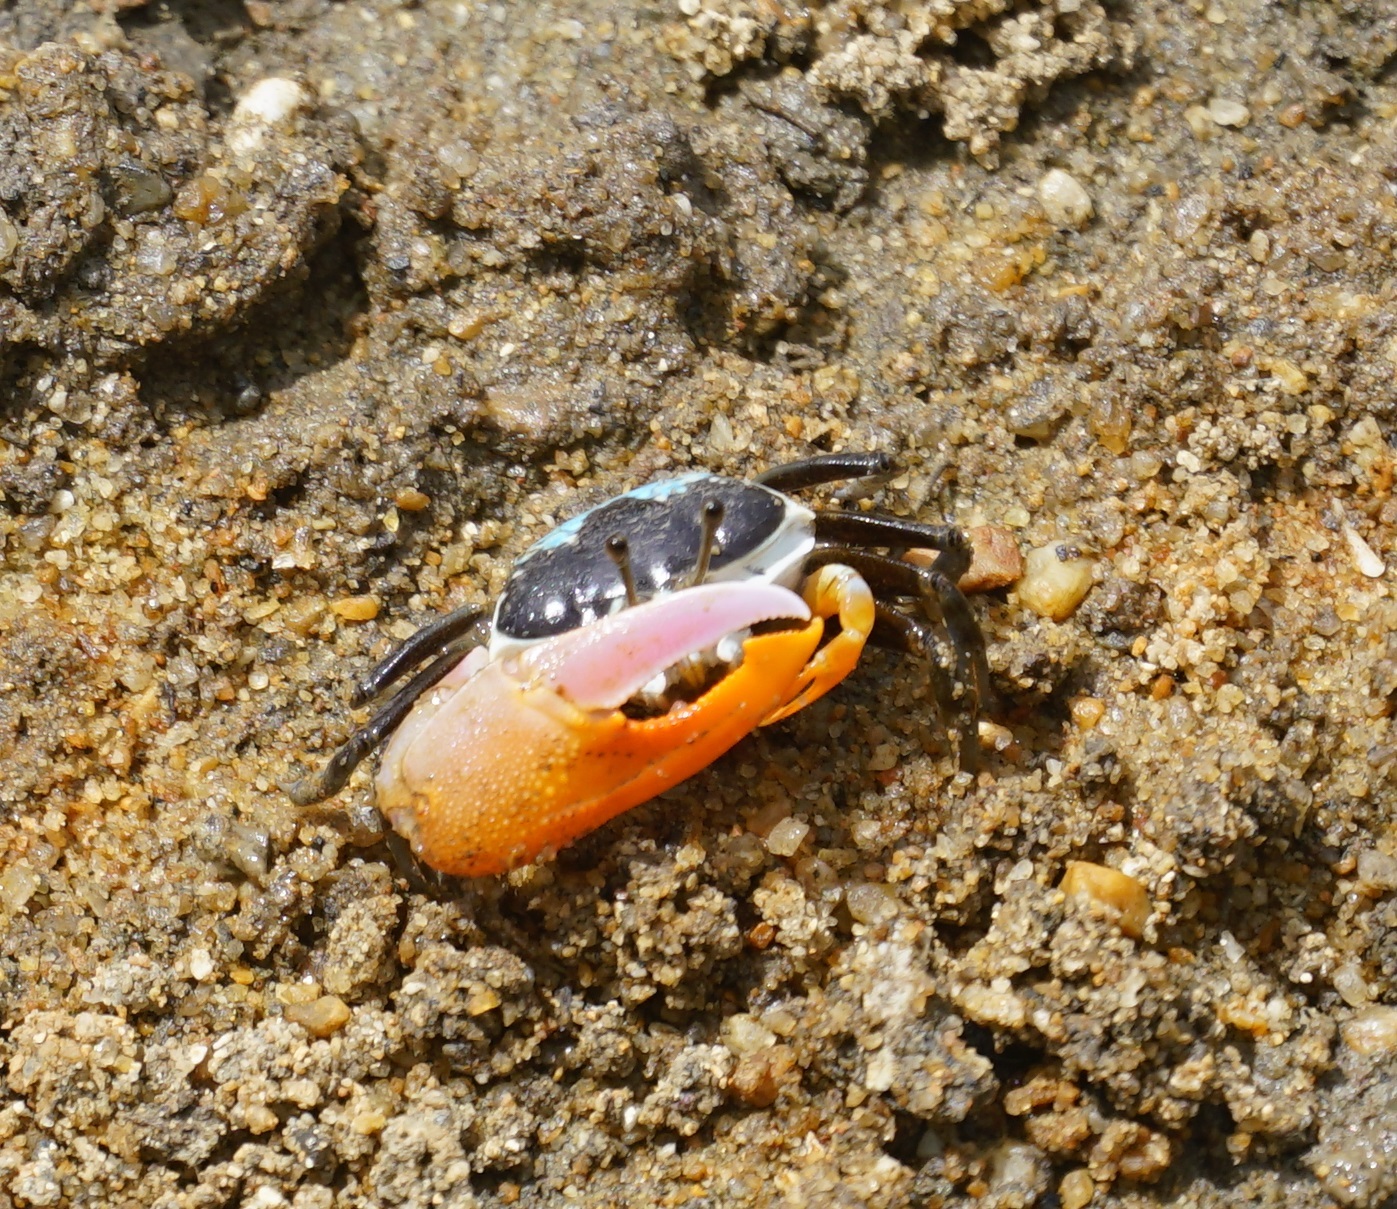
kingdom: Animalia
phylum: Arthropoda
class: Malacostraca
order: Decapoda
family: Ocypodidae
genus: Gelasimus
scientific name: Gelasimus vomeris
